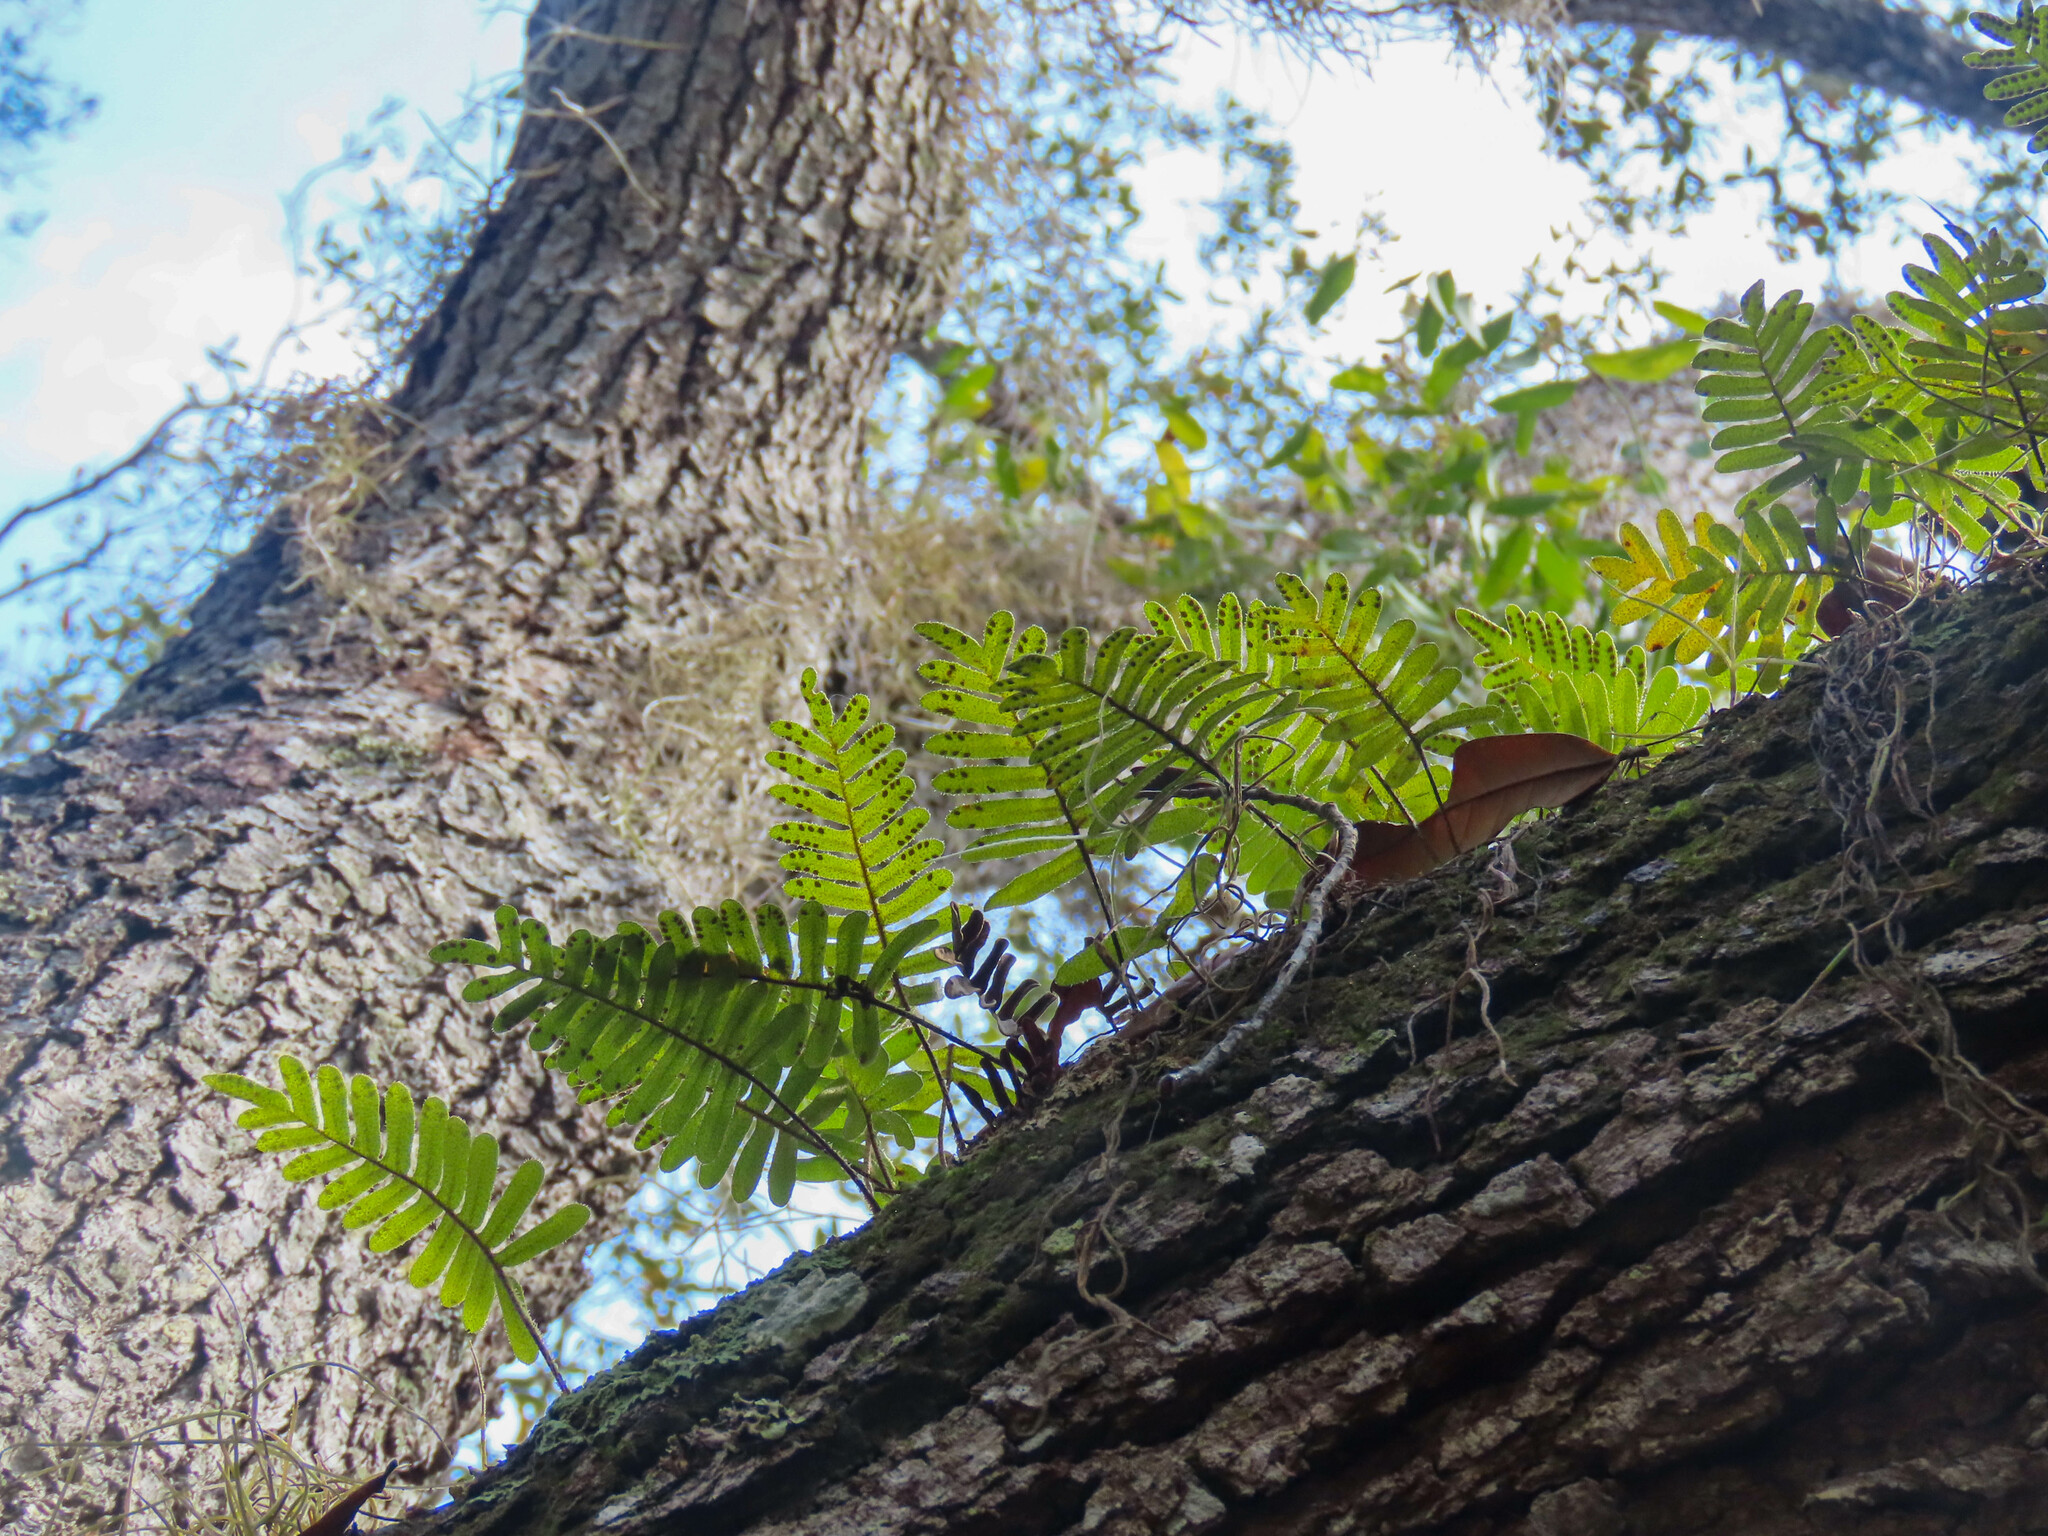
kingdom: Plantae
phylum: Tracheophyta
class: Polypodiopsida
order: Polypodiales
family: Polypodiaceae
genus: Pleopeltis
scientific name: Pleopeltis michauxiana
